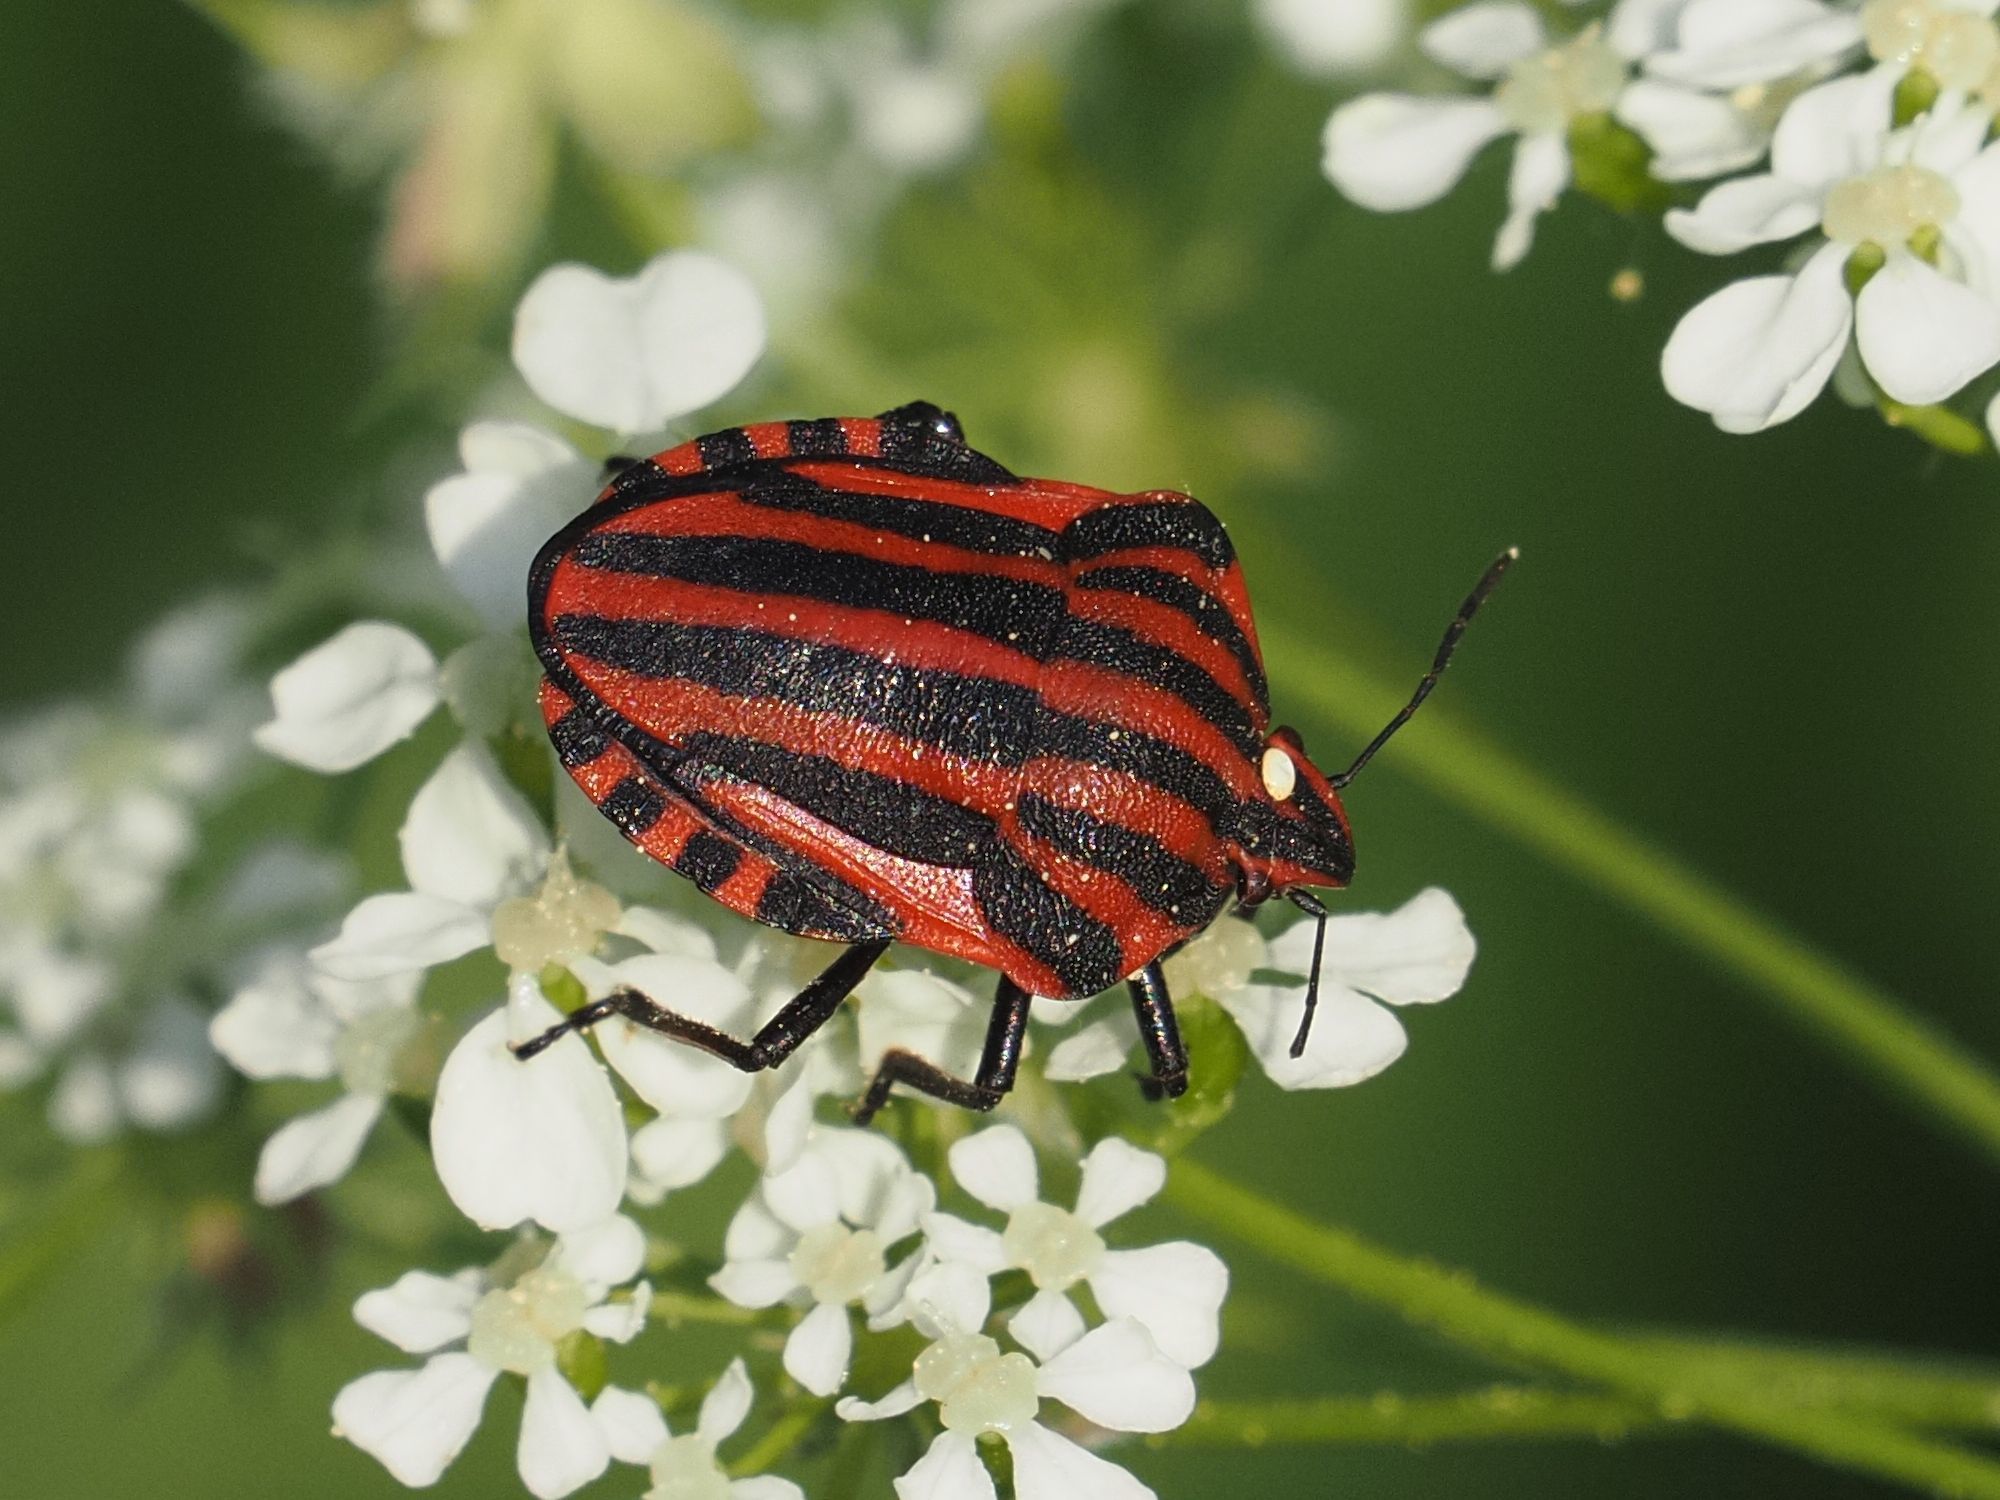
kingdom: Animalia
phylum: Arthropoda
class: Insecta
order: Hemiptera
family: Pentatomidae
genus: Graphosoma
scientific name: Graphosoma italicum
